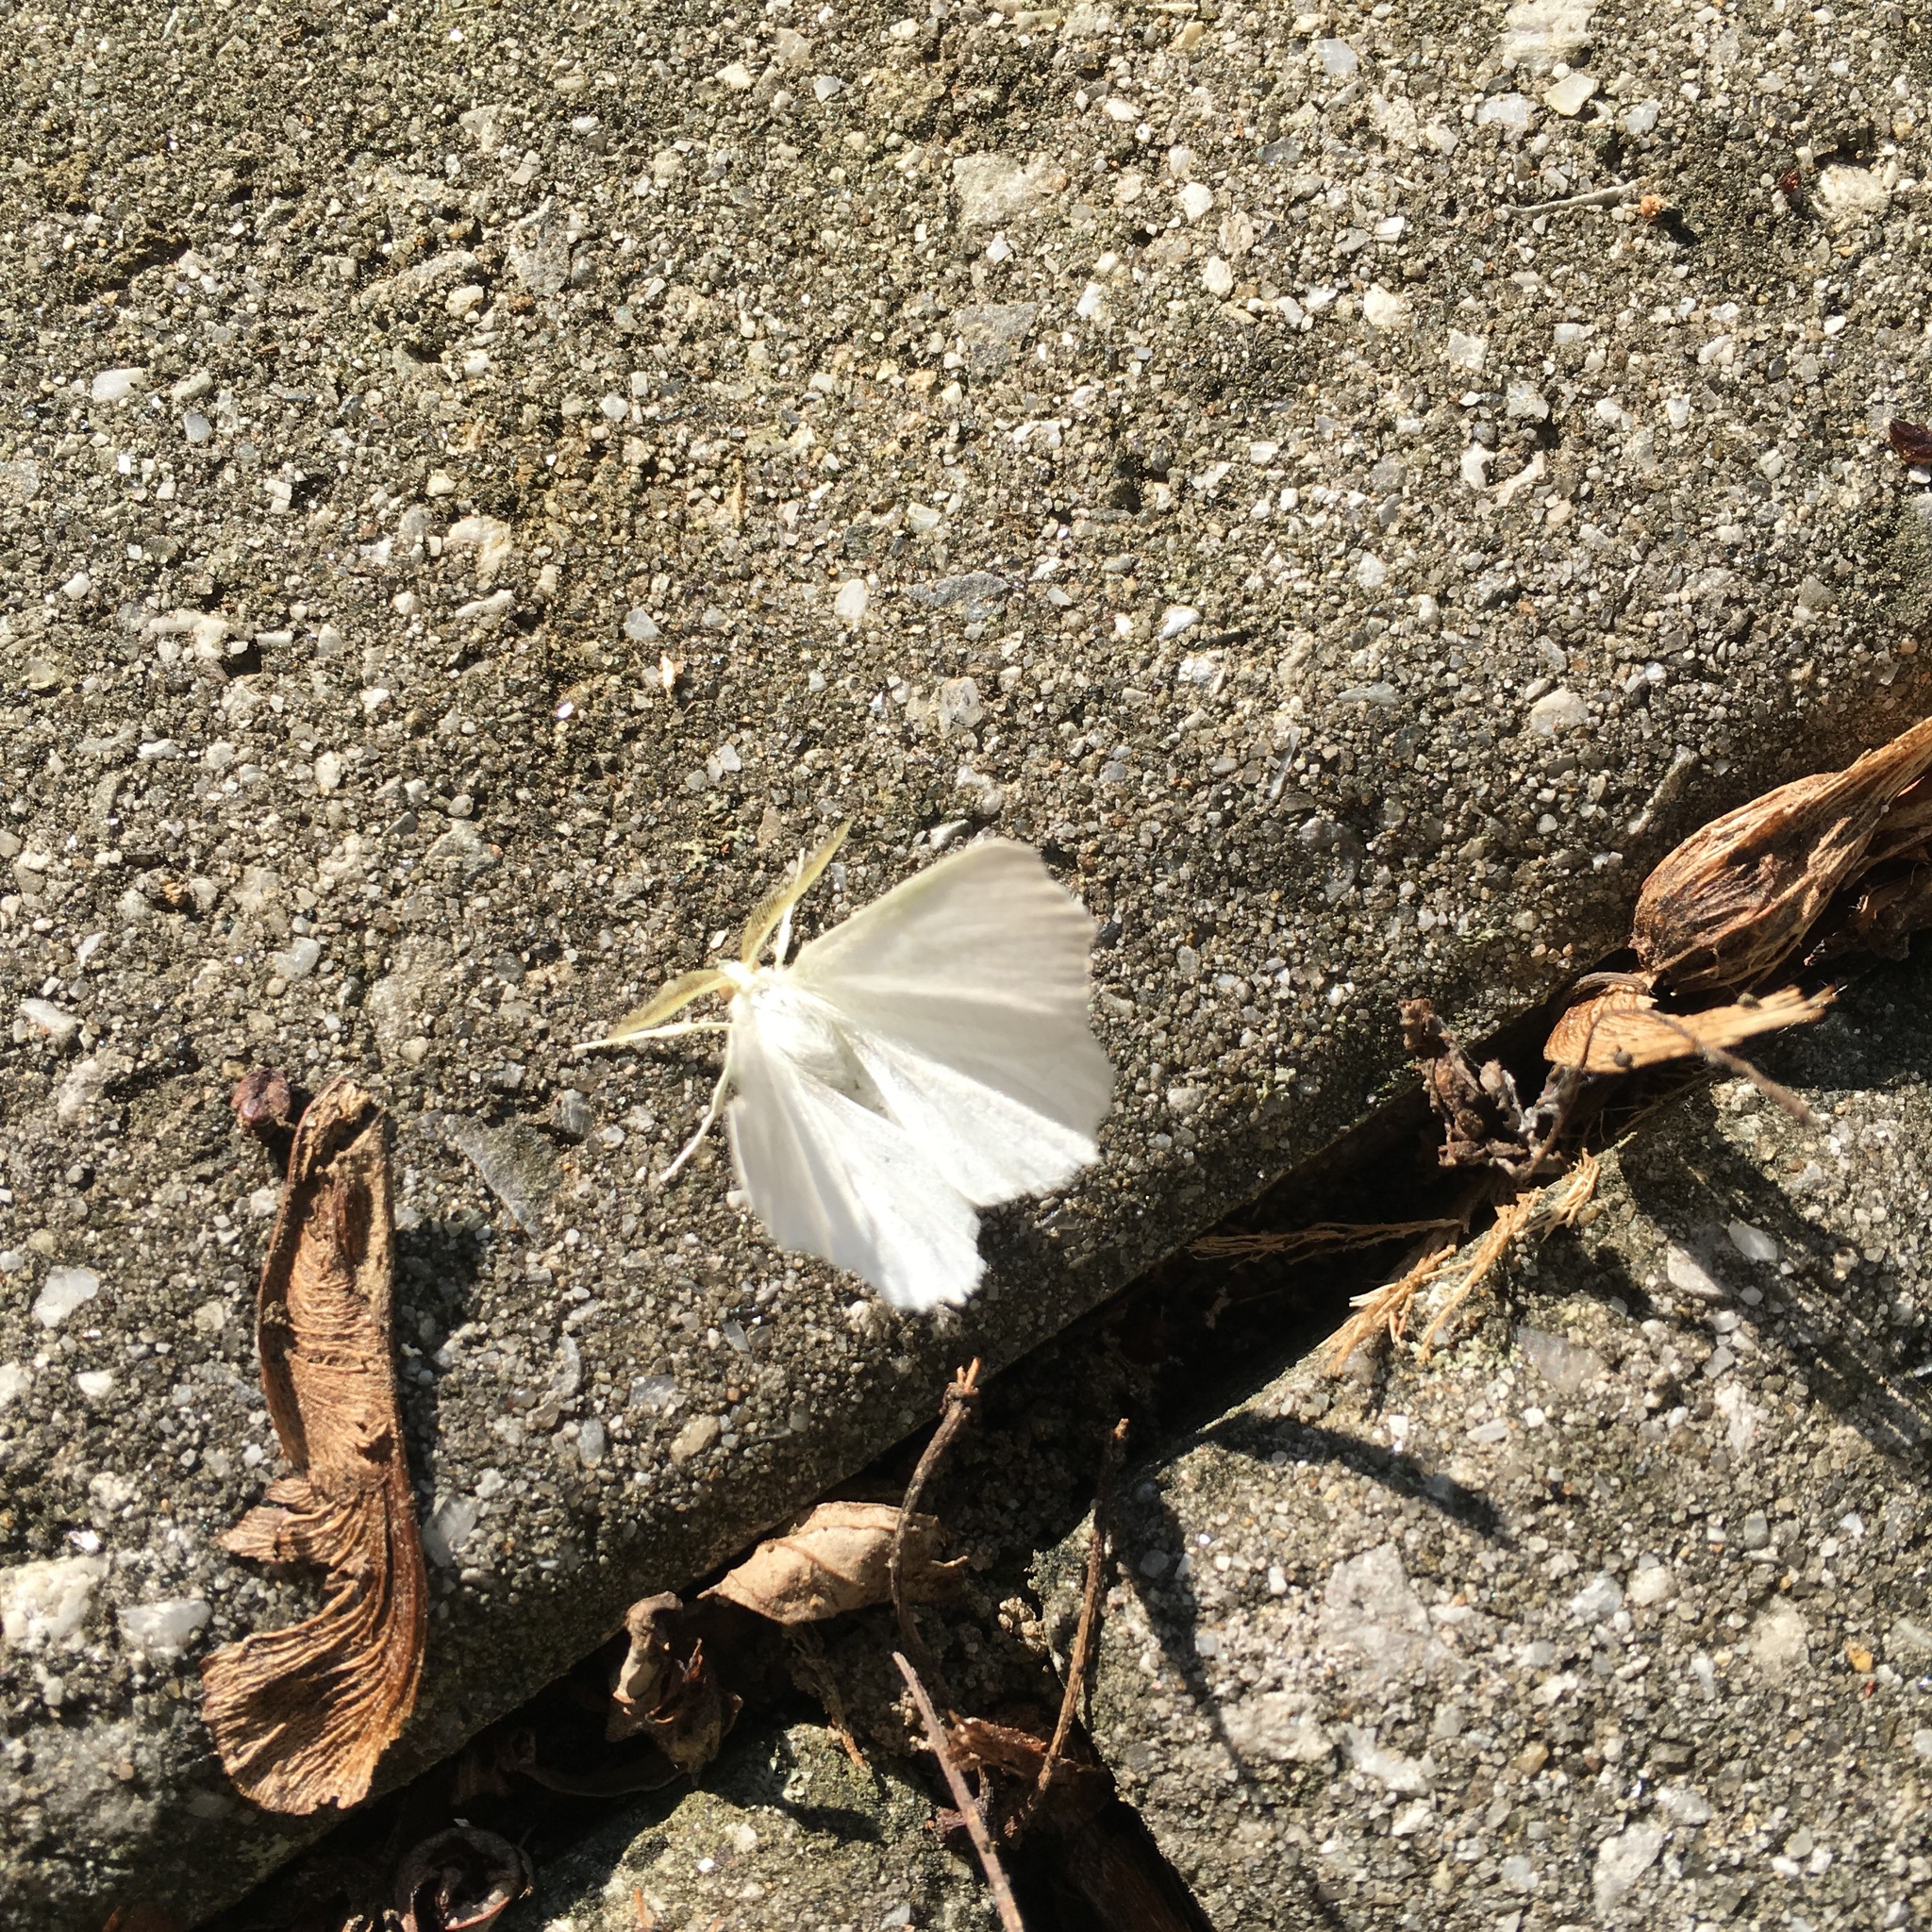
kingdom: Animalia
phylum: Arthropoda
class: Insecta
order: Lepidoptera
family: Geometridae
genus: Ennomos
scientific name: Ennomos subsignaria
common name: Elm spanworm
